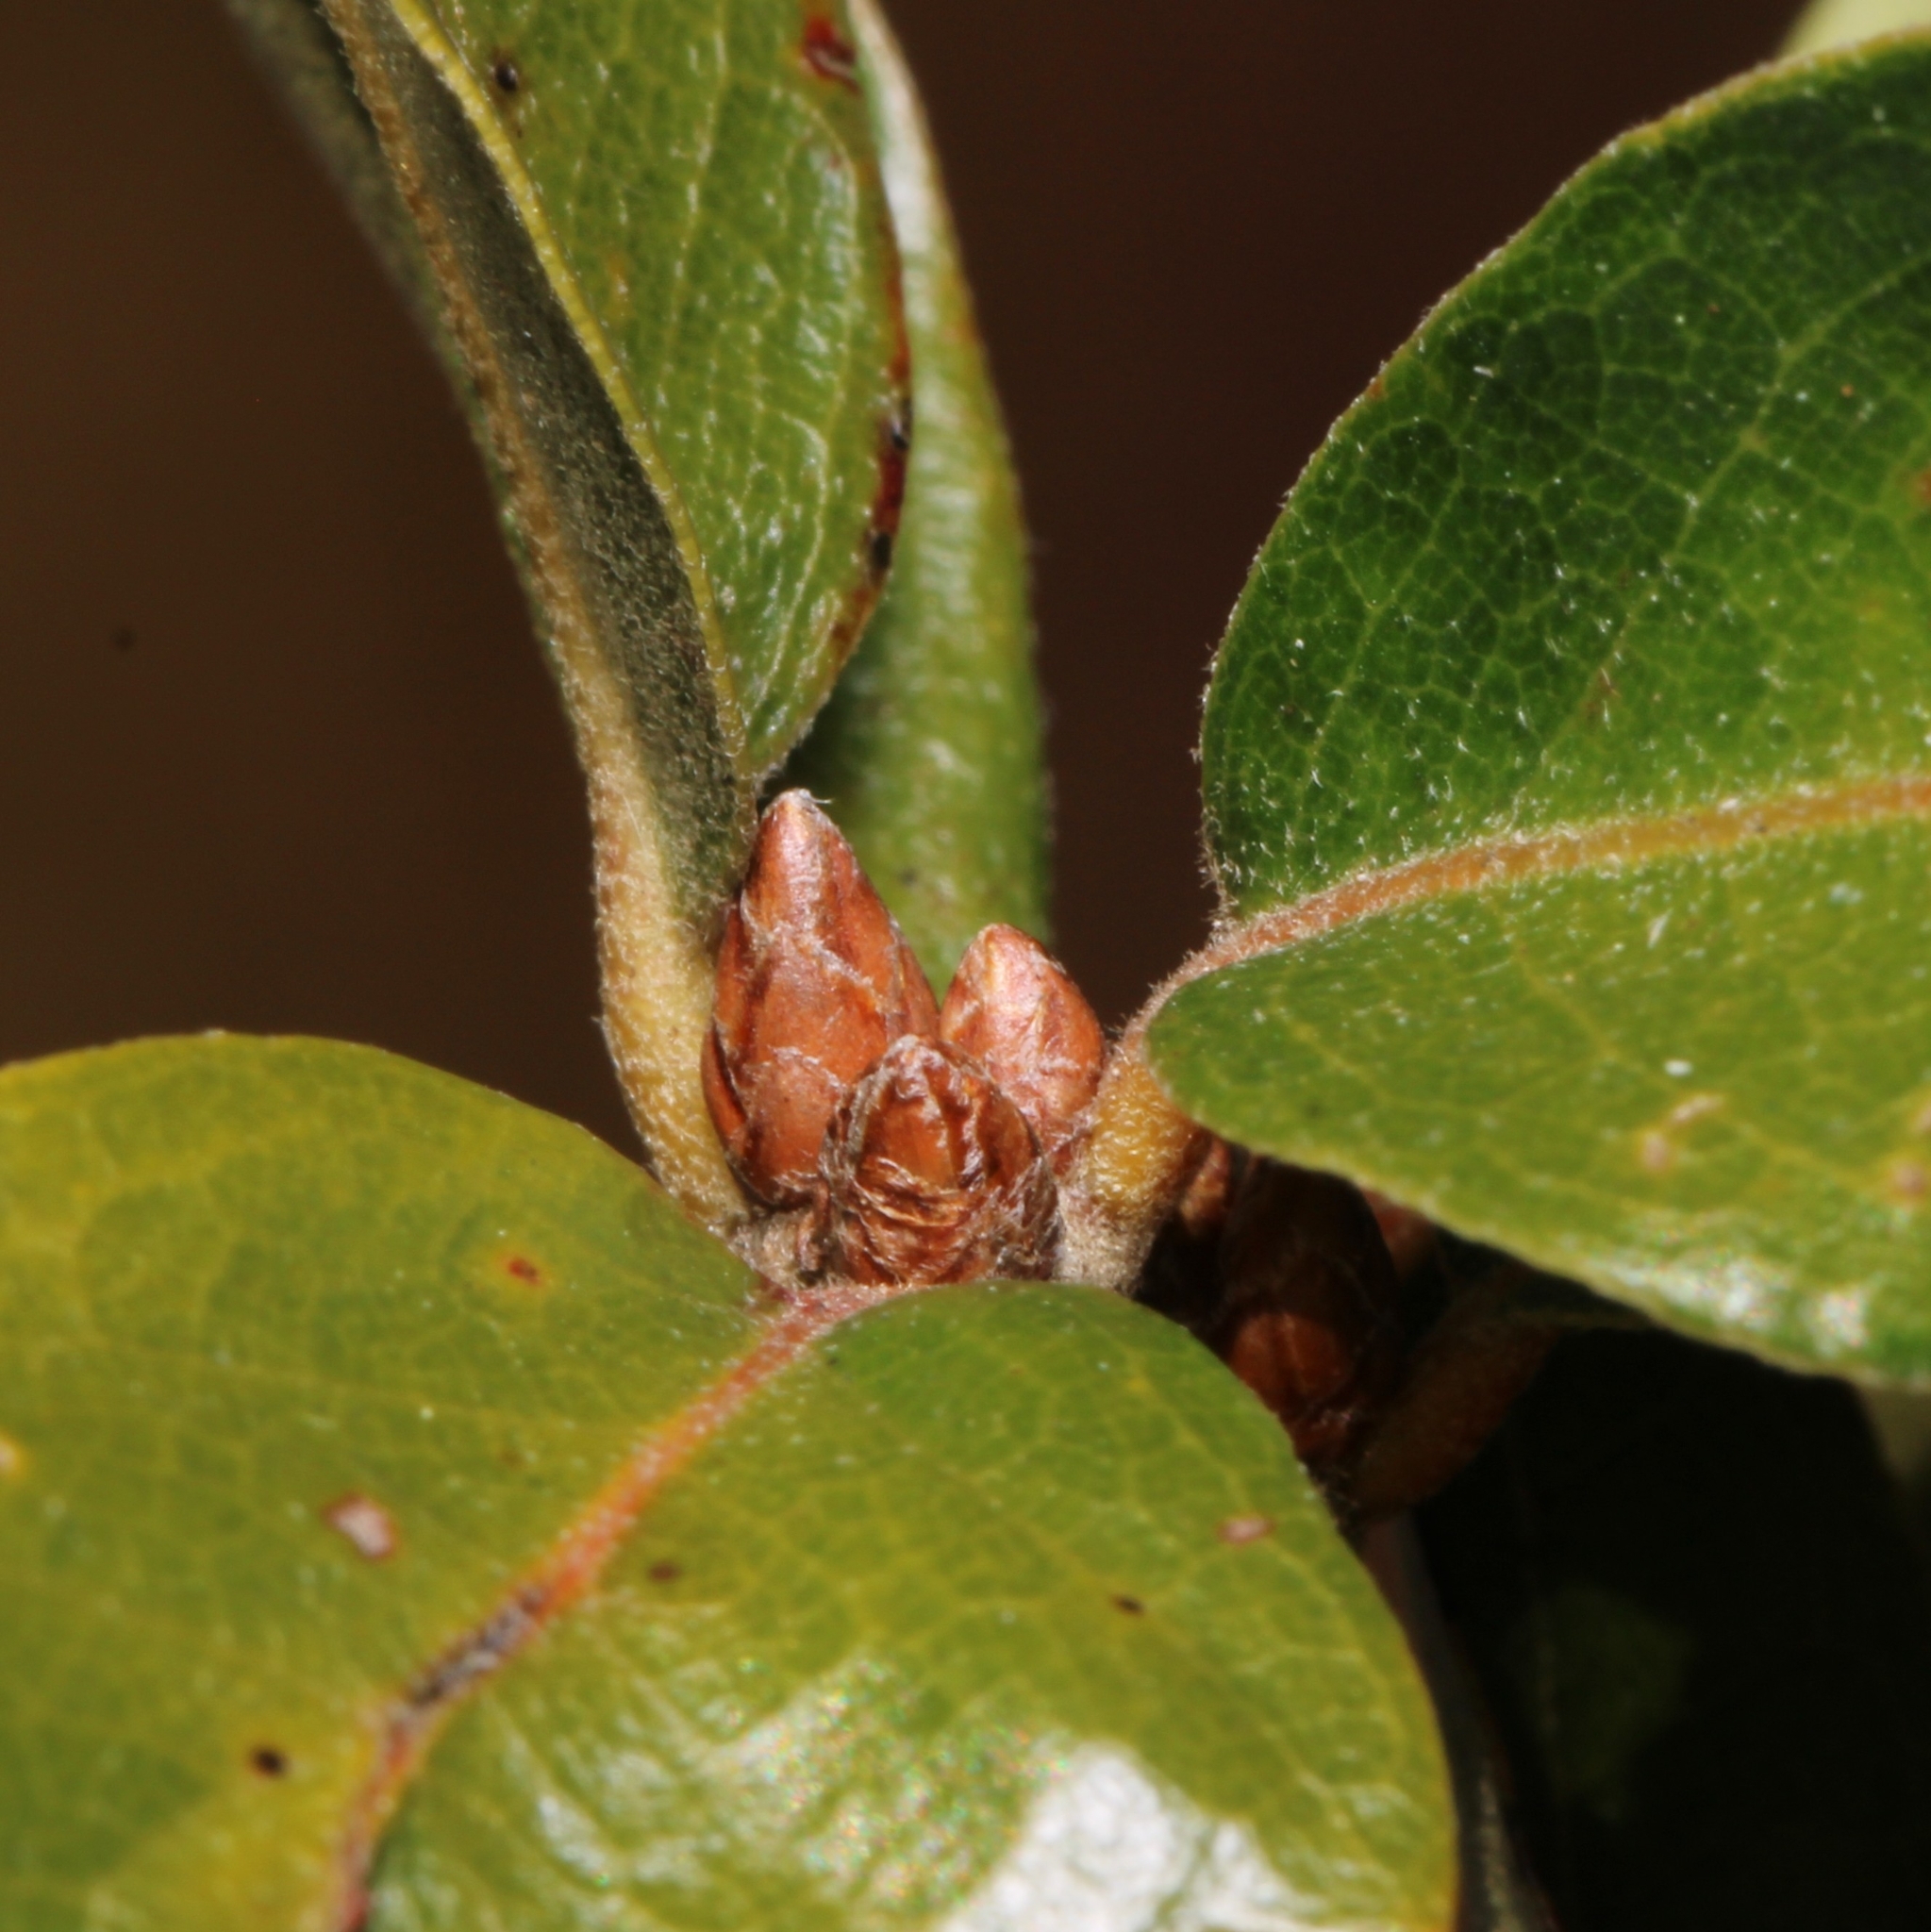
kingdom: Plantae
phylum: Tracheophyta
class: Magnoliopsida
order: Fagales
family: Fagaceae
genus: Quercus
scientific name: Quercus phellos
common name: Willow oak
